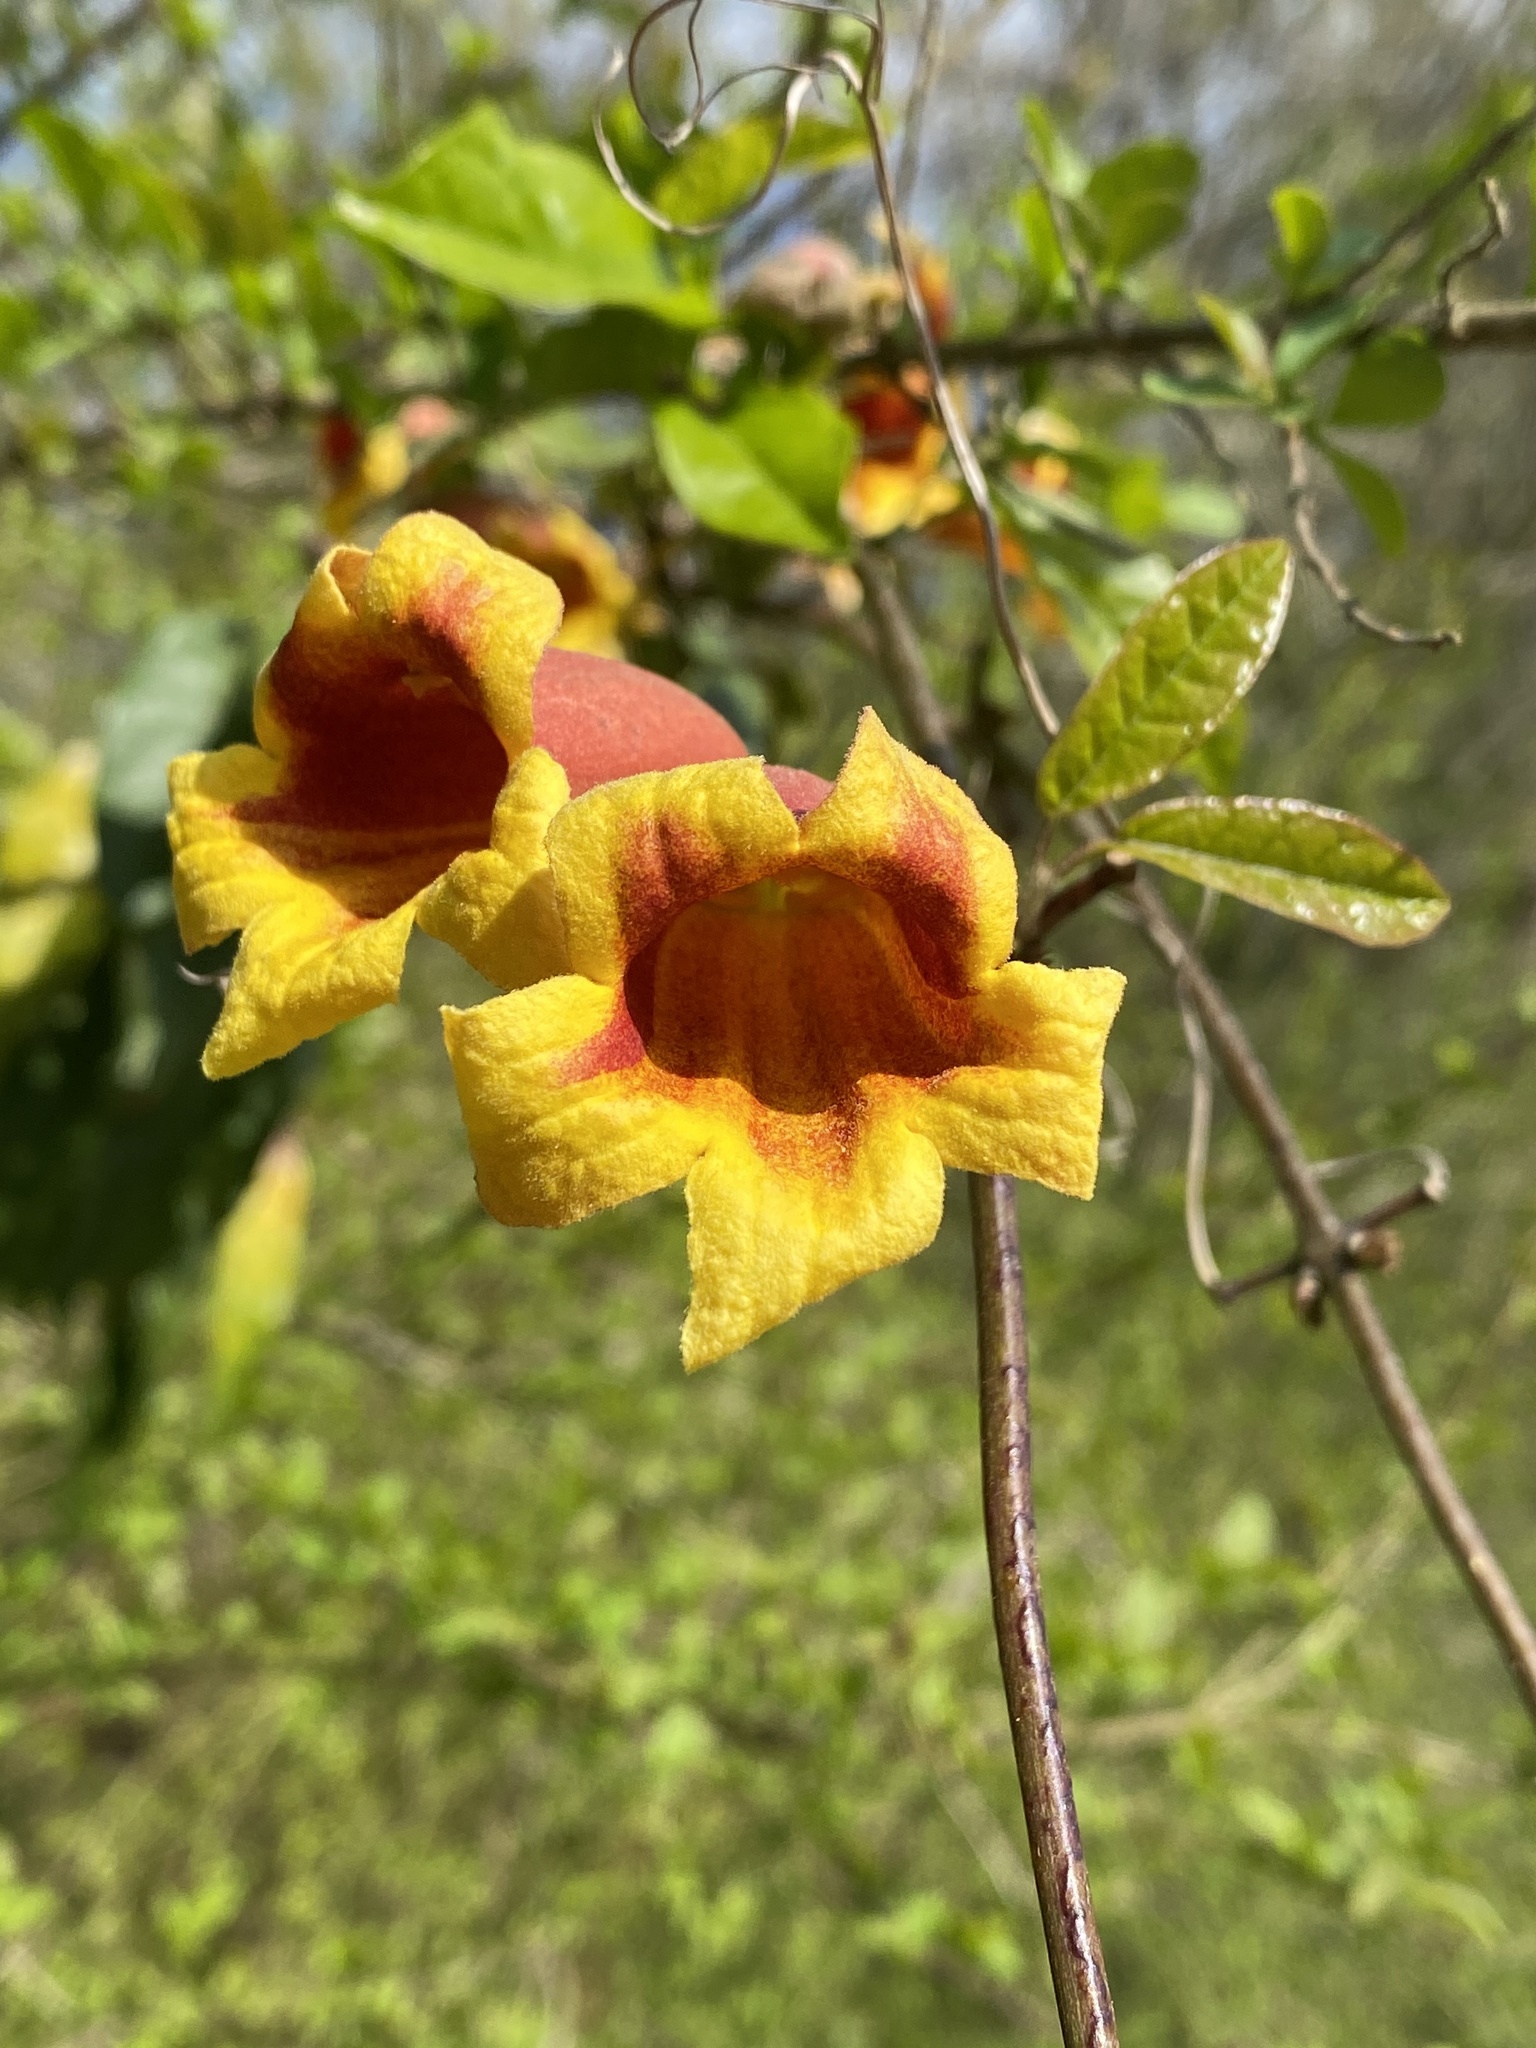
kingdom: Plantae
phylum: Tracheophyta
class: Magnoliopsida
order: Lamiales
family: Bignoniaceae
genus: Bignonia
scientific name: Bignonia capreolata
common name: Crossvine
